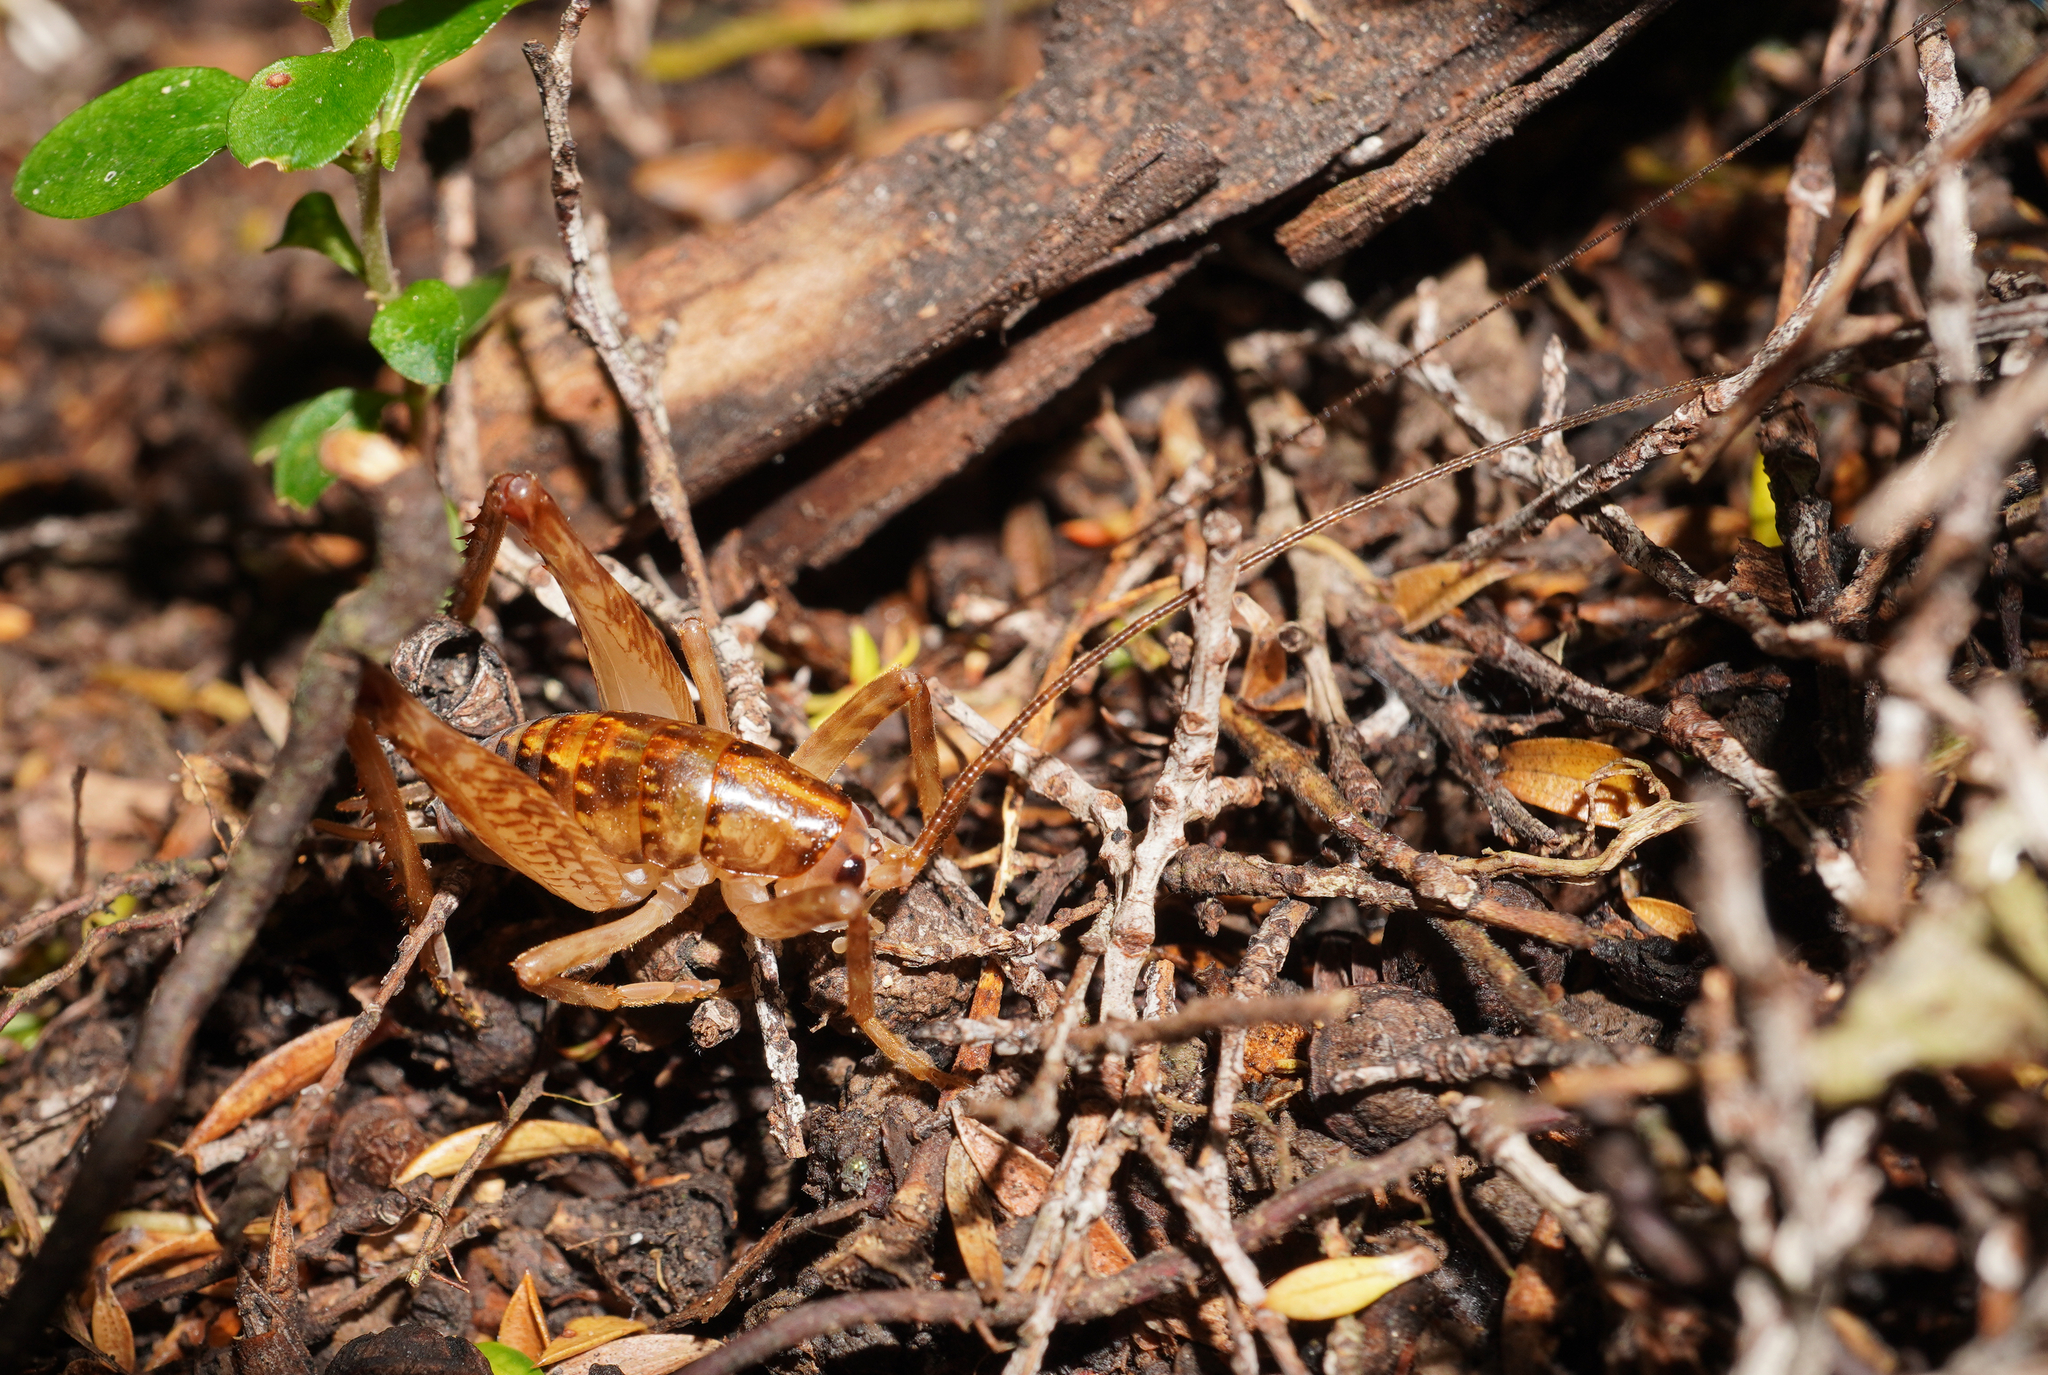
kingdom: Animalia
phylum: Arthropoda
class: Insecta
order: Orthoptera
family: Rhaphidophoridae
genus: Talitropsis
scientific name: Talitropsis sedilloti
